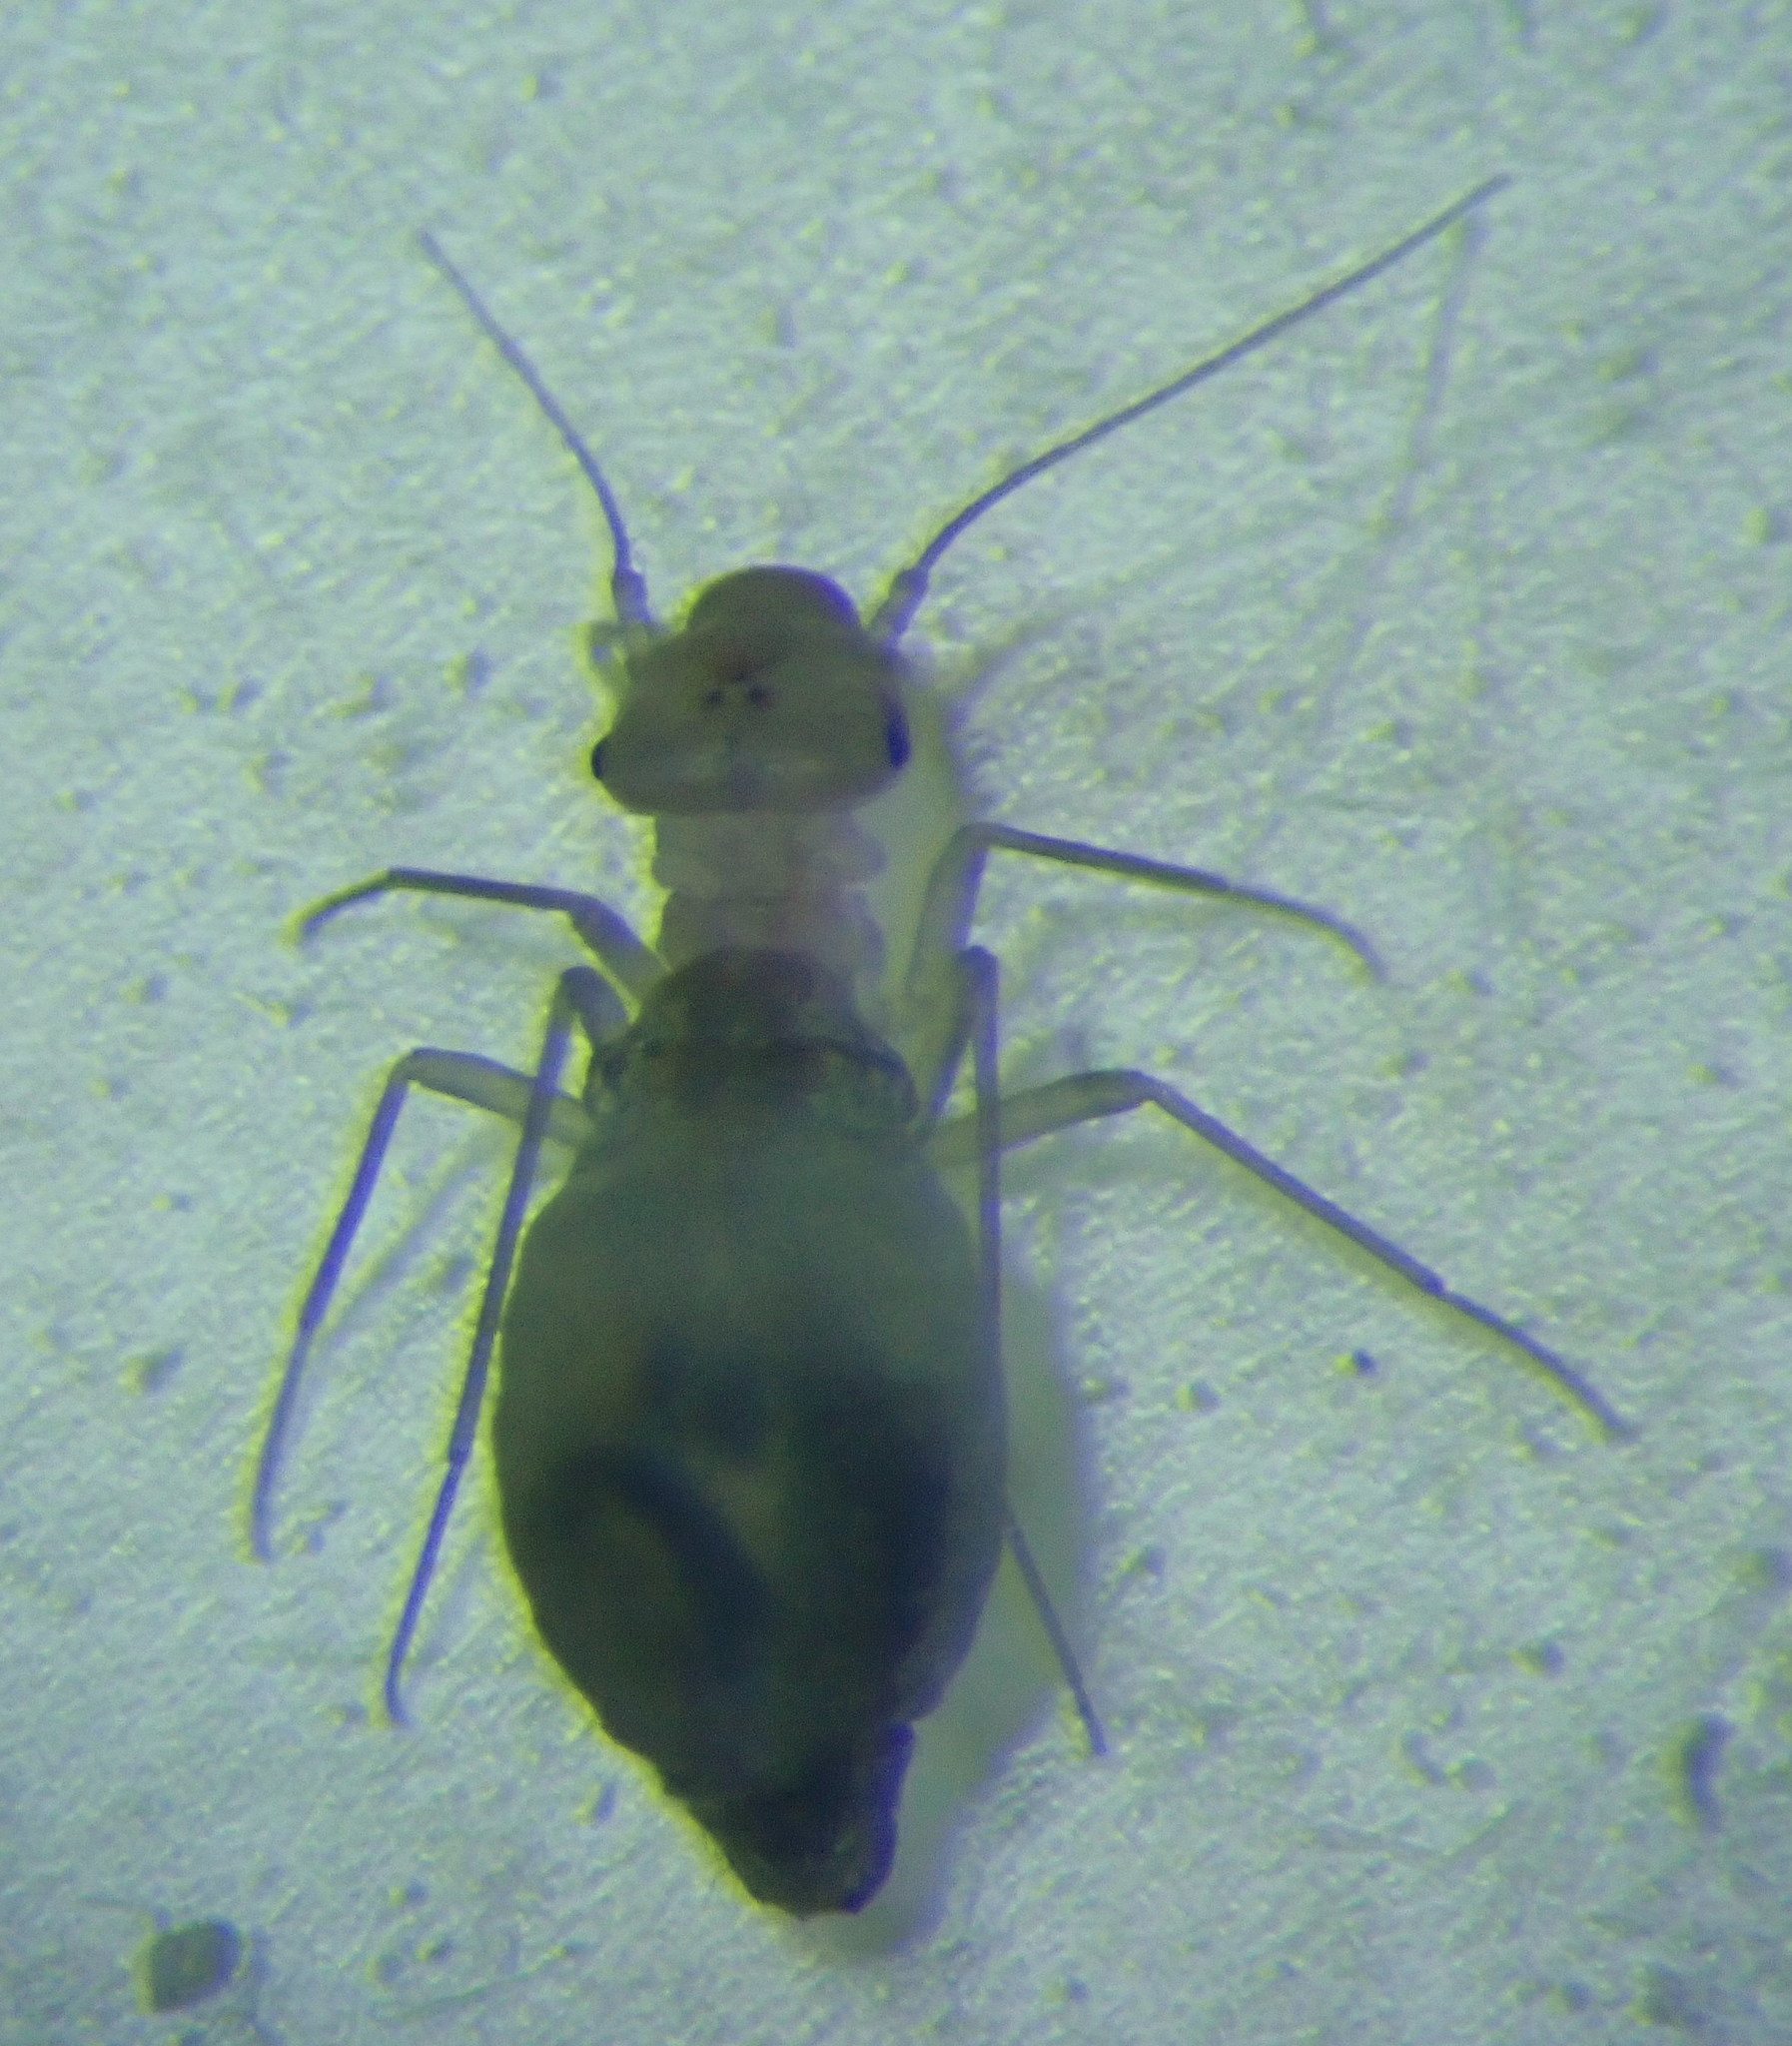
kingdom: Animalia
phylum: Arthropoda
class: Insecta
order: Psocodea
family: Psyllipsocidae
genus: Psyllipsocus
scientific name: Psyllipsocus ramburii
